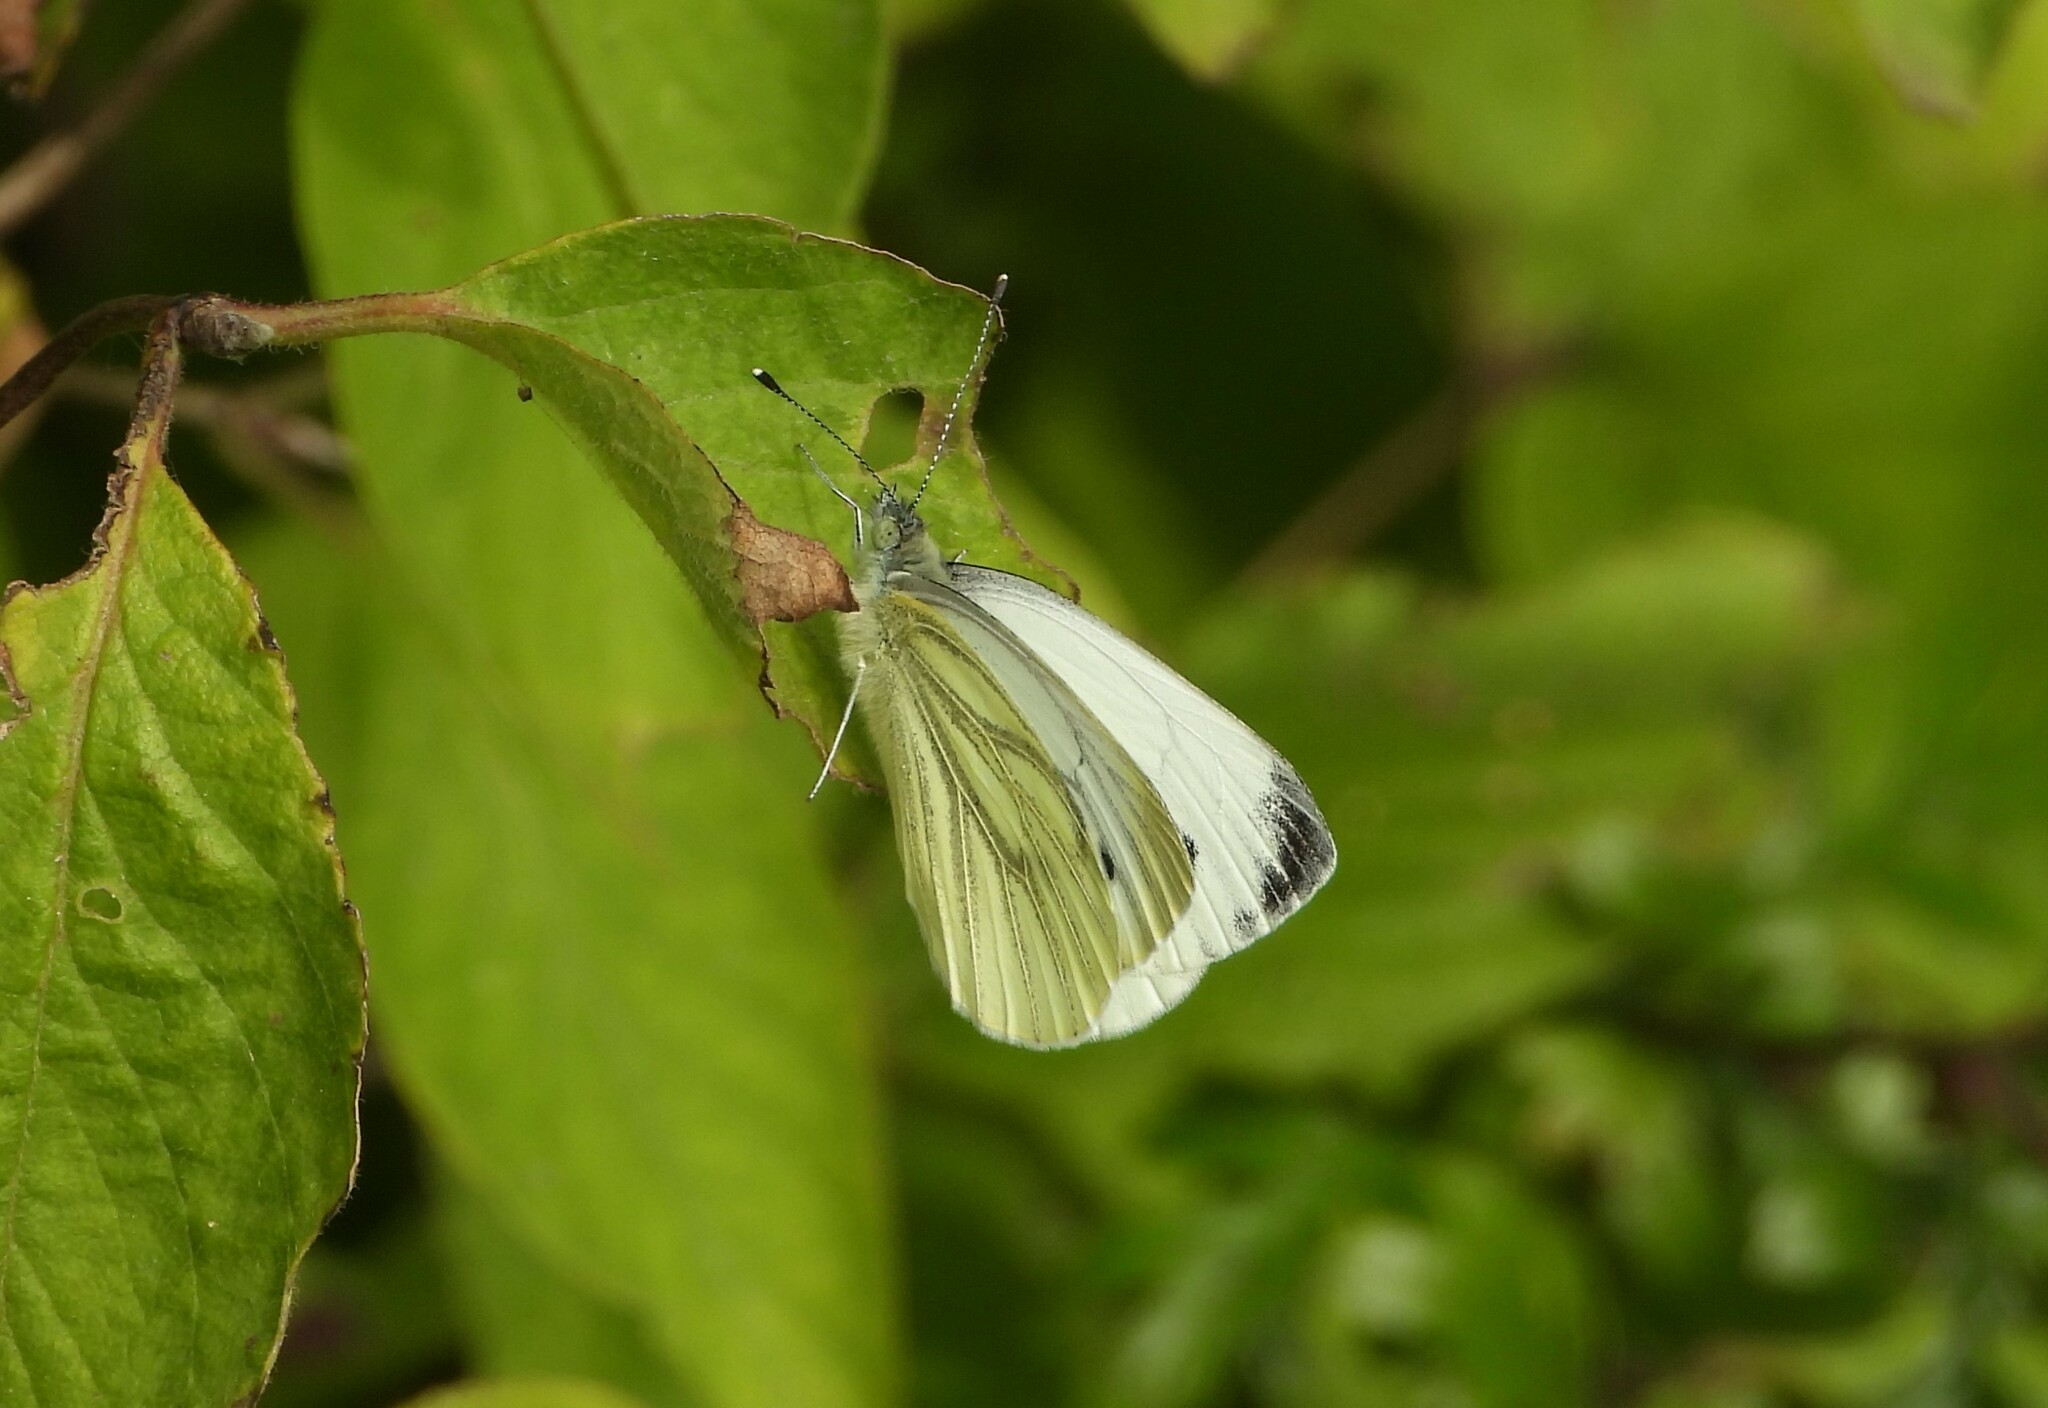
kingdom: Animalia
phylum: Arthropoda
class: Insecta
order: Lepidoptera
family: Pieridae
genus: Pieris
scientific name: Pieris napi
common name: Green-veined white
